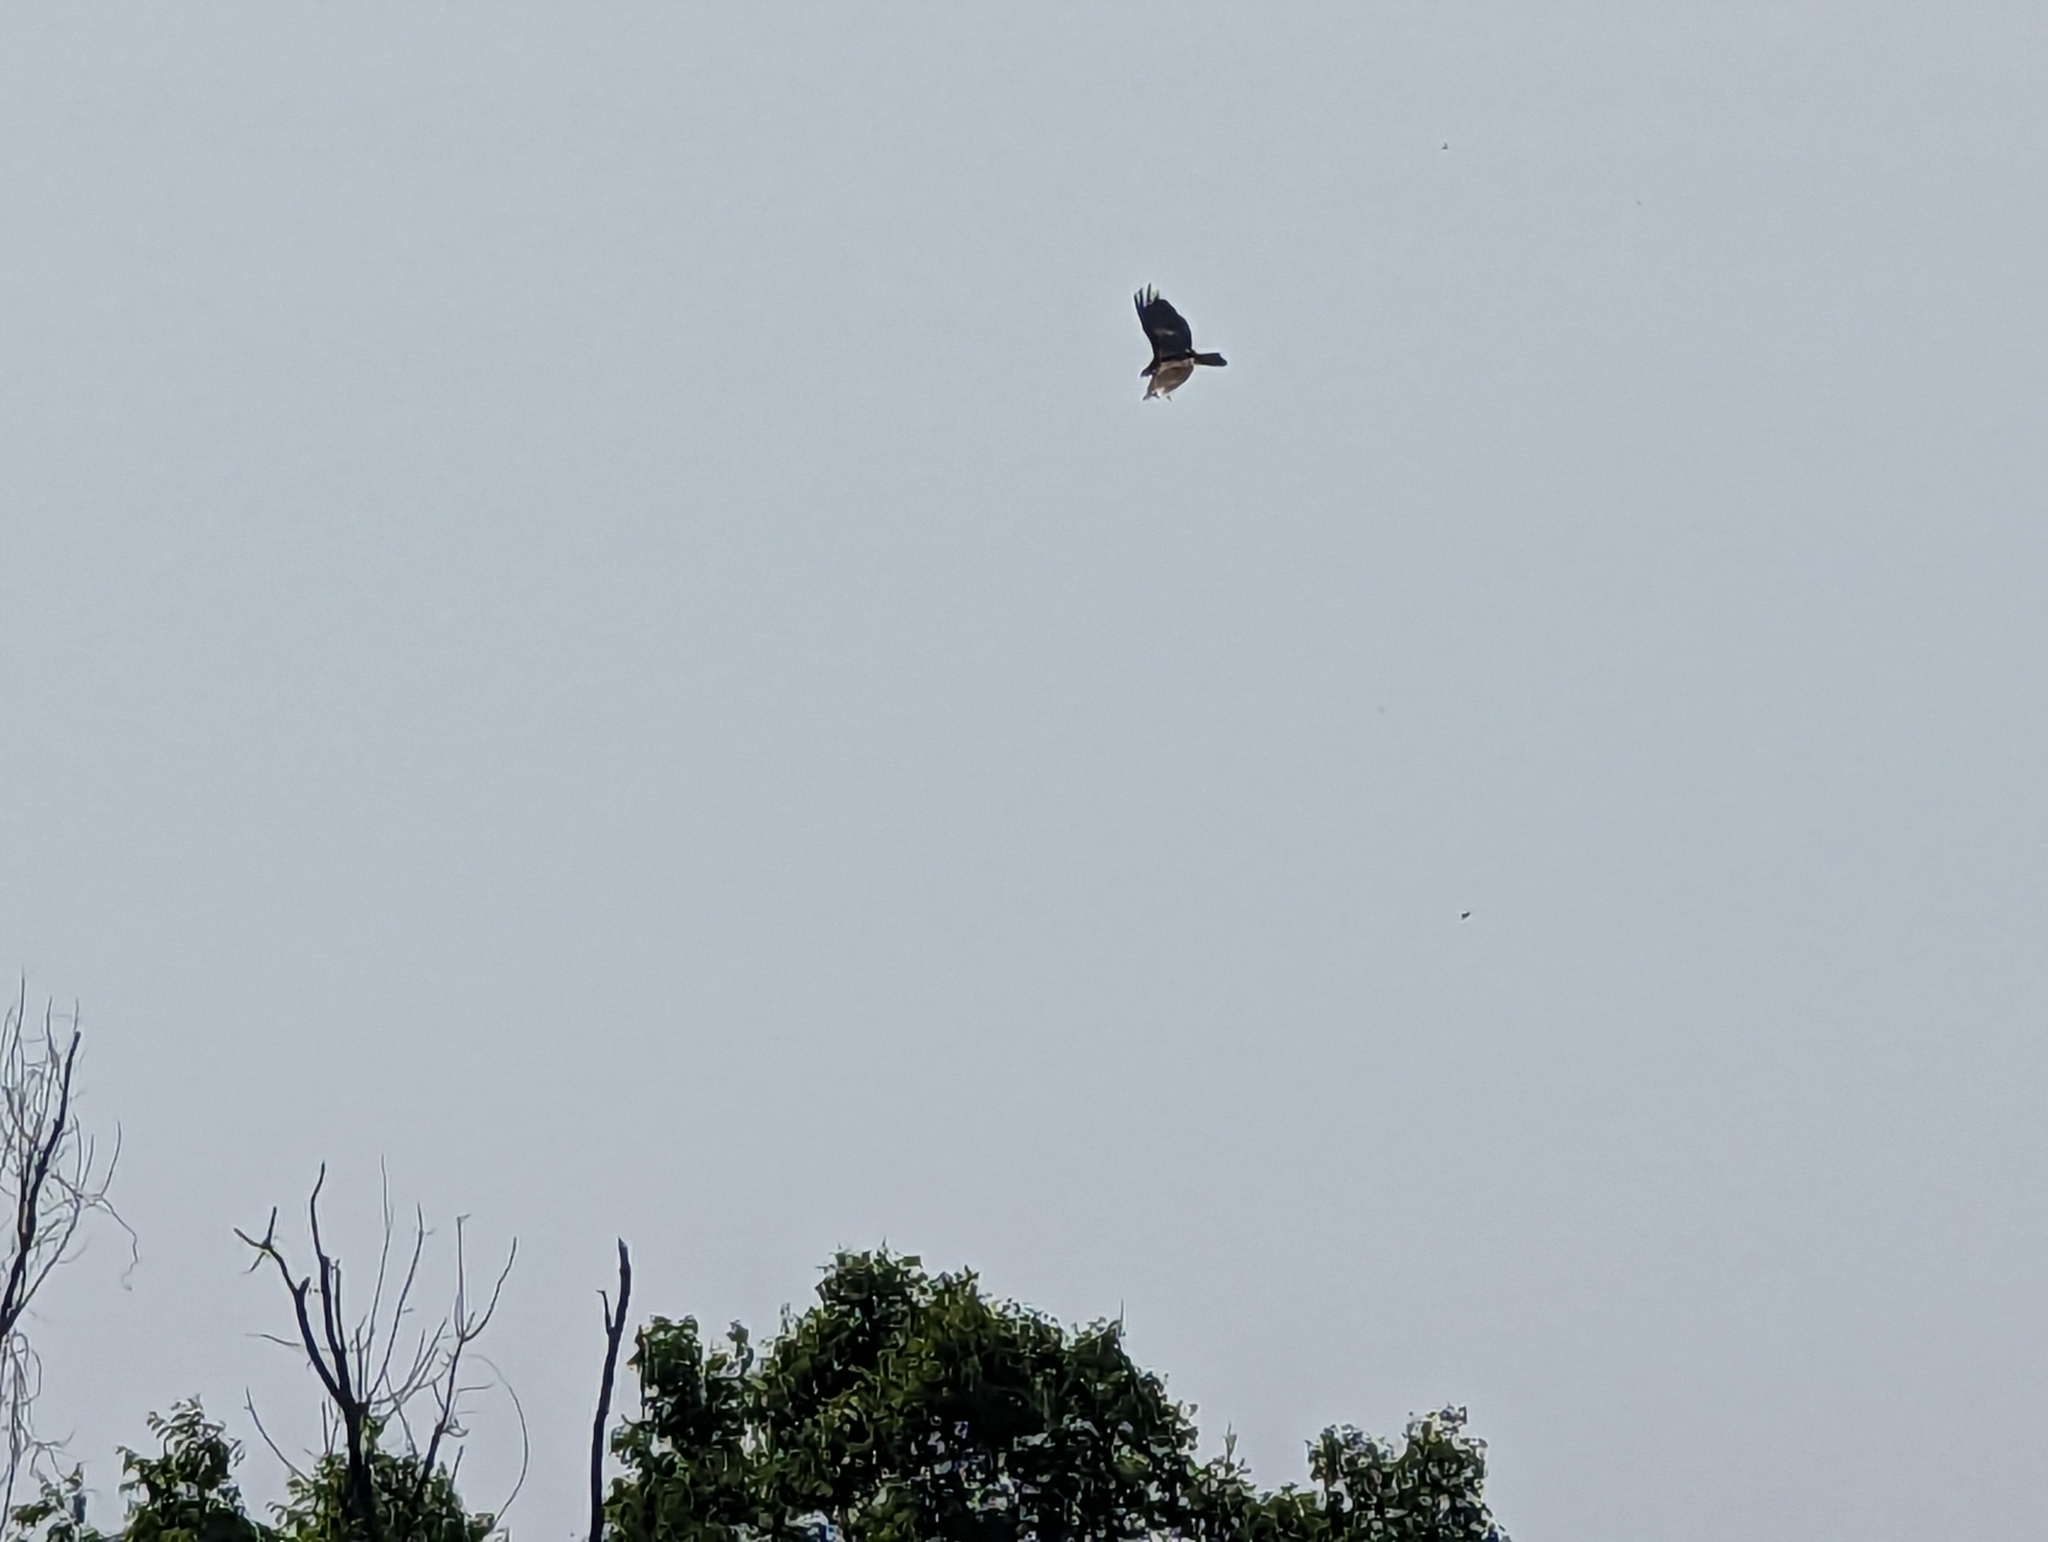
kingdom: Animalia
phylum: Chordata
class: Aves
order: Accipitriformes
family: Cathartidae
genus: Cathartes
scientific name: Cathartes aura
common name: Turkey vulture
